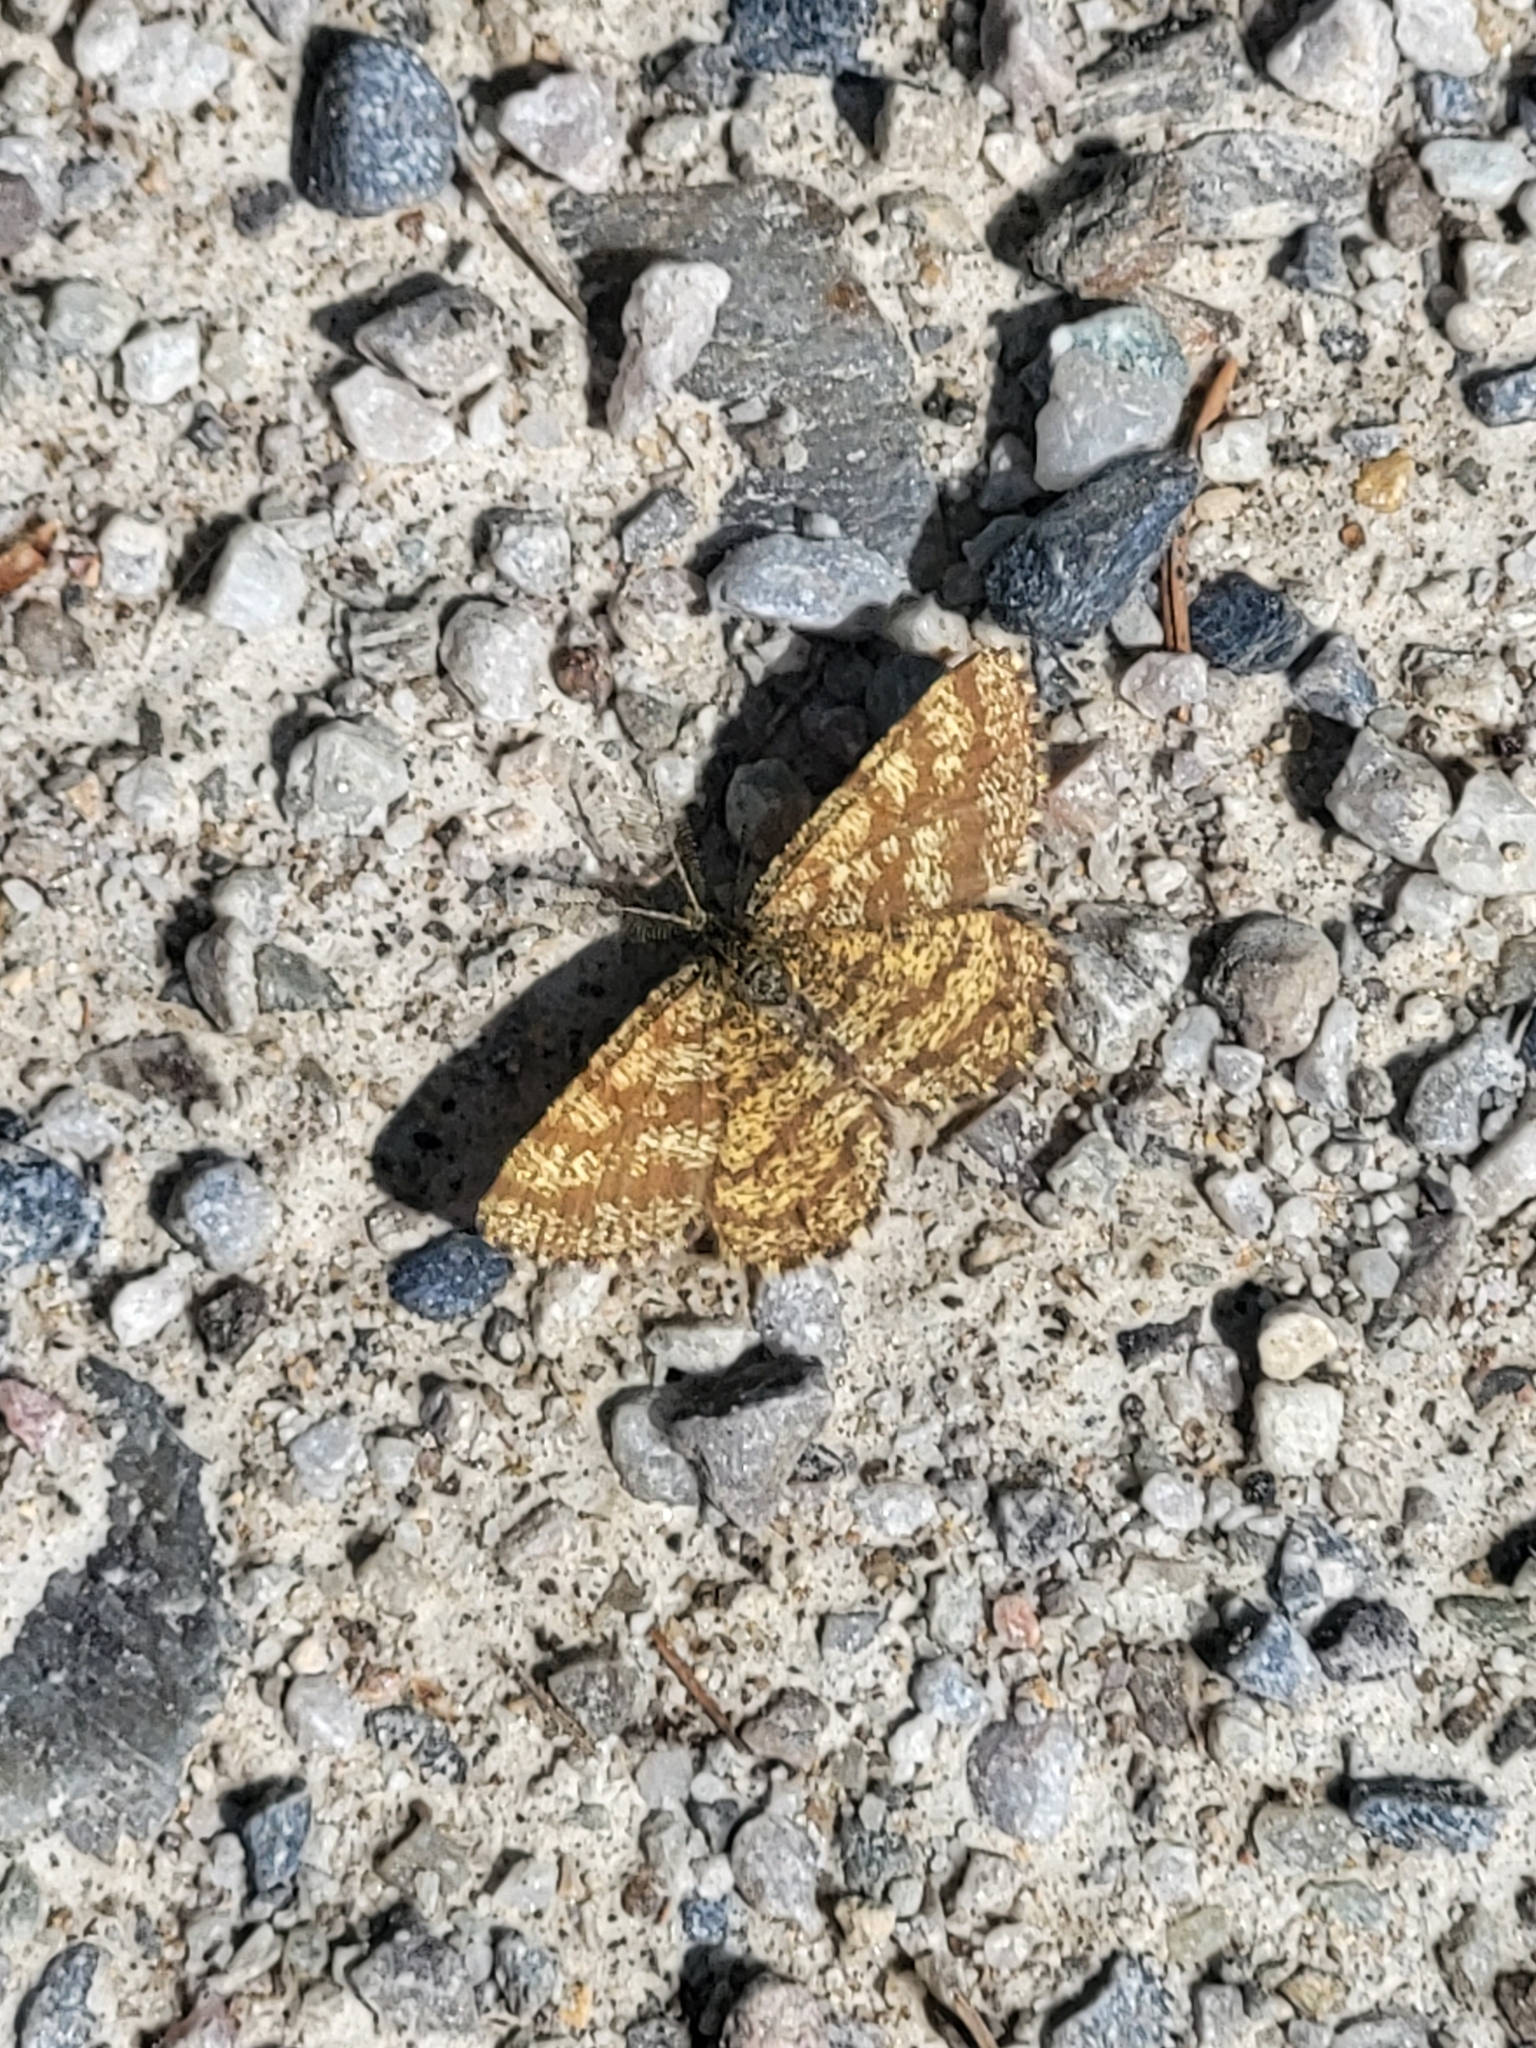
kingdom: Animalia
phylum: Arthropoda
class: Insecta
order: Lepidoptera
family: Geometridae
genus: Ematurga
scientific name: Ematurga atomaria
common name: Common heath
